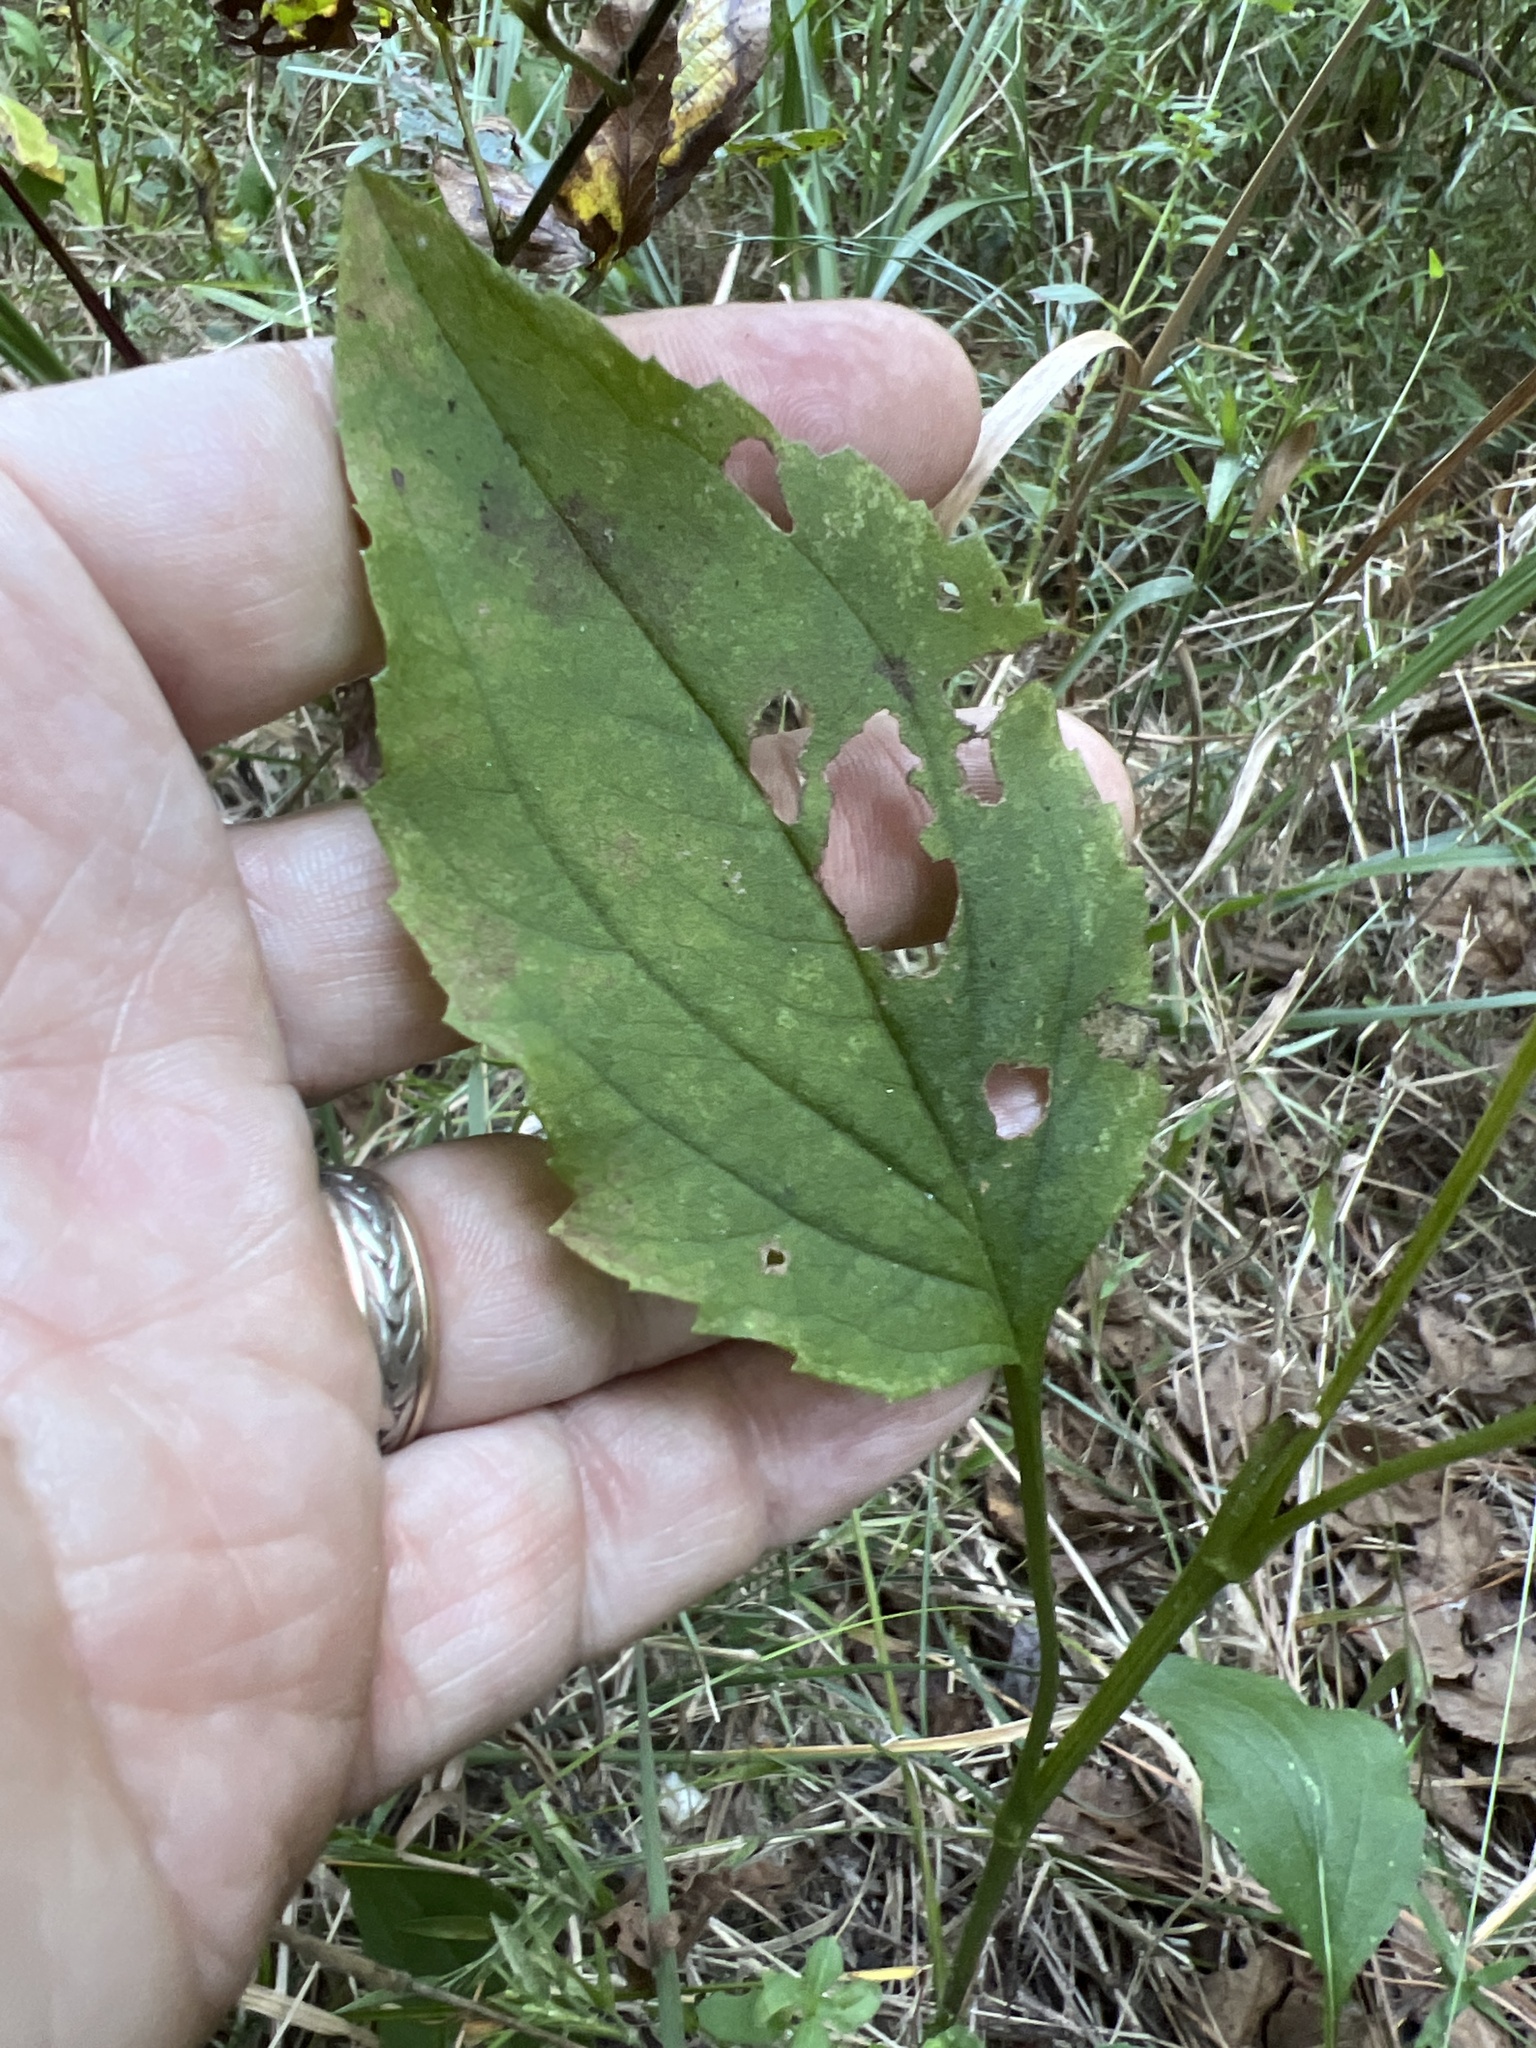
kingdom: Plantae
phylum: Tracheophyta
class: Magnoliopsida
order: Asterales
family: Asteraceae
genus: Rudbeckia
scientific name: Rudbeckia heliopsidis
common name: Little river black-eyed-susan
